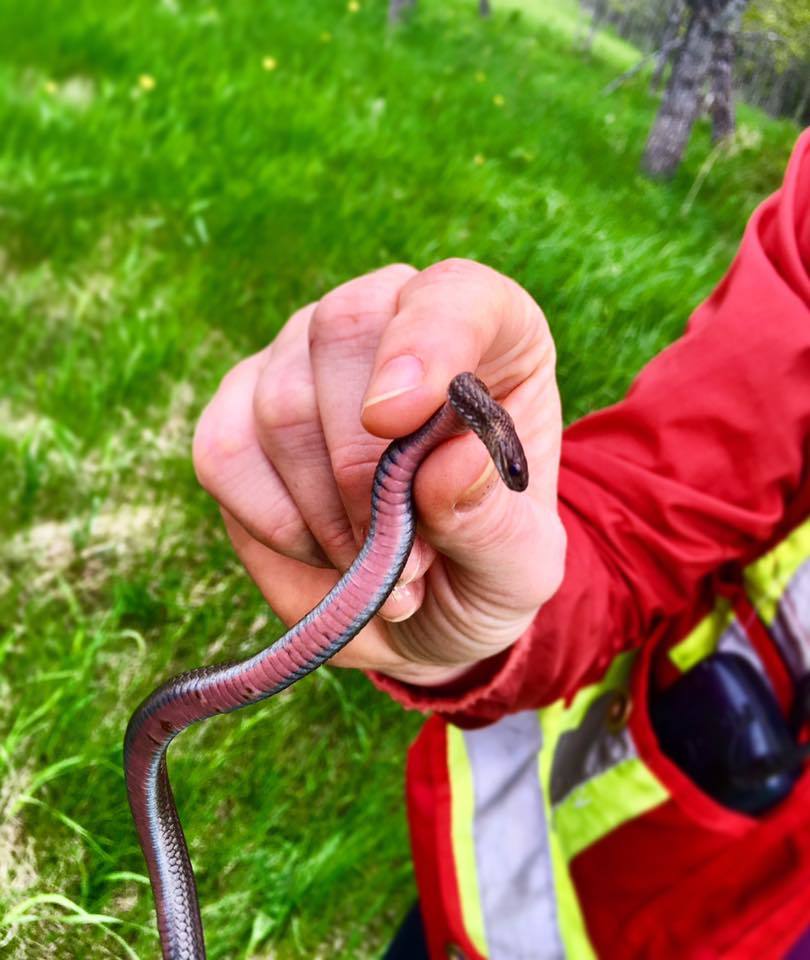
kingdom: Animalia
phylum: Chordata
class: Squamata
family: Colubridae
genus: Storeria
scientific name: Storeria occipitomaculata
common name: Redbelly snake
